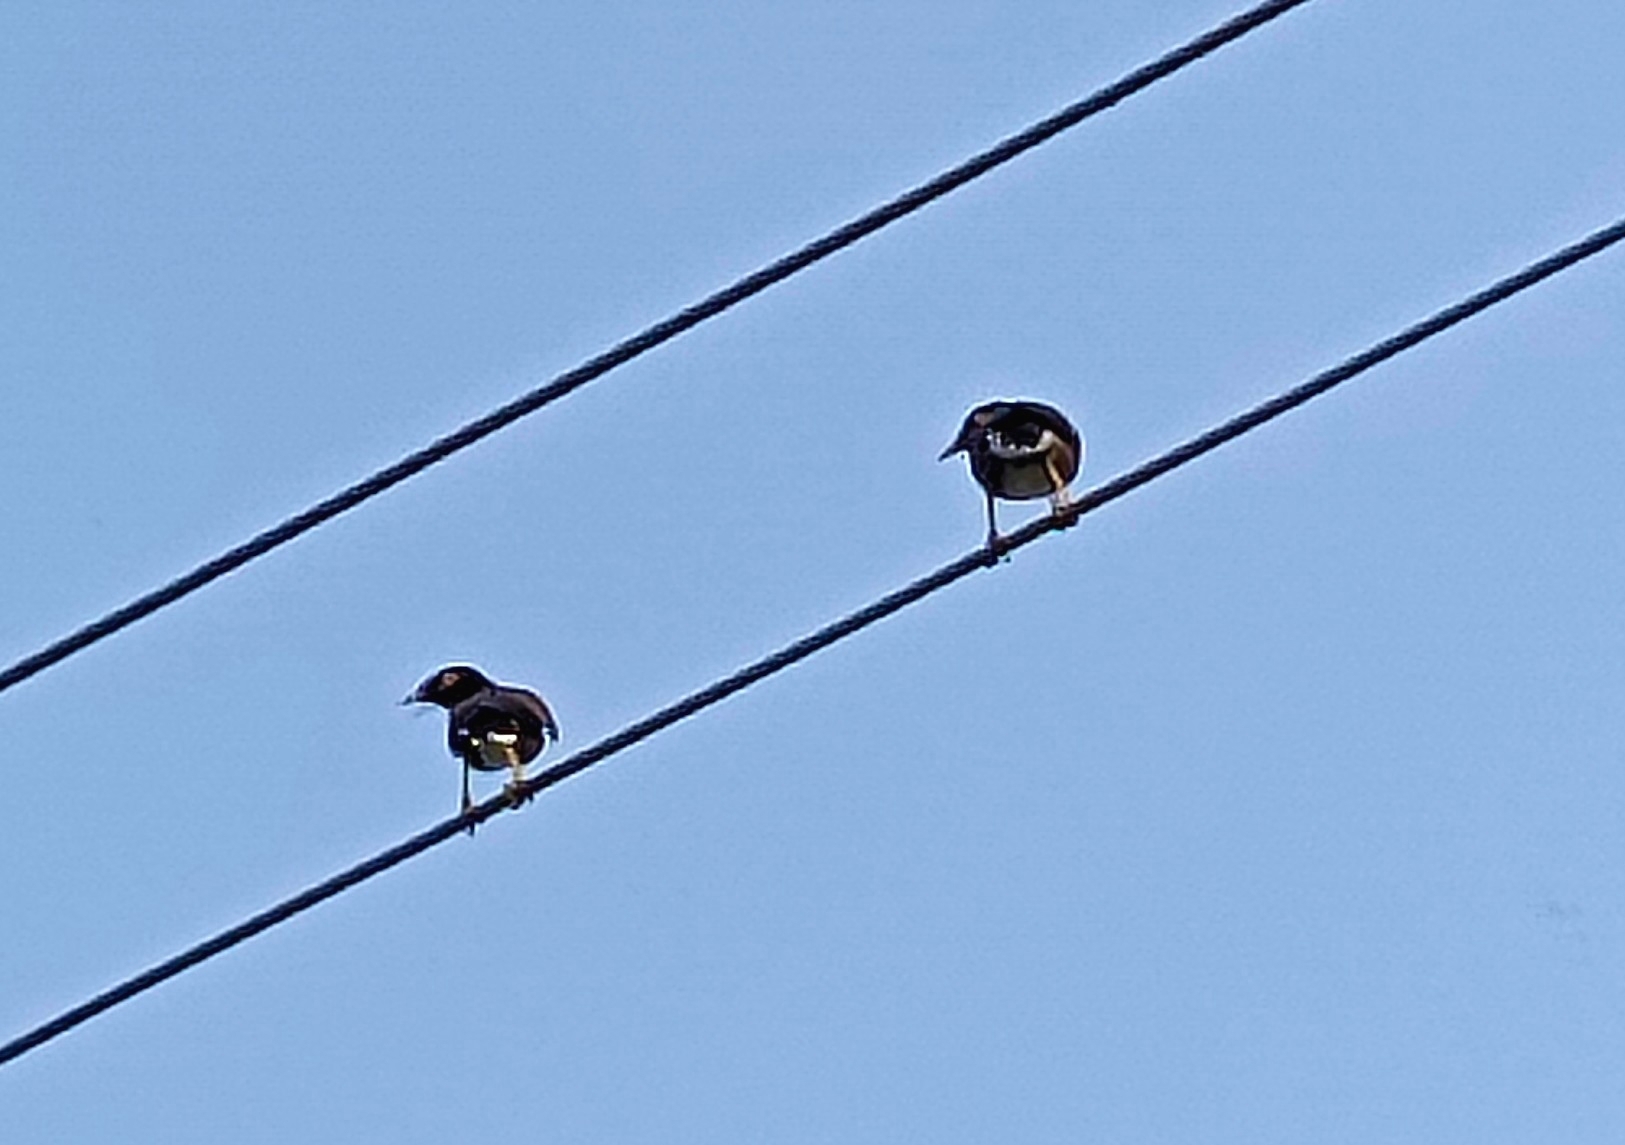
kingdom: Animalia
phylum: Chordata
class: Aves
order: Passeriformes
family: Sturnidae
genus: Acridotheres
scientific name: Acridotheres tristis
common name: Common myna
